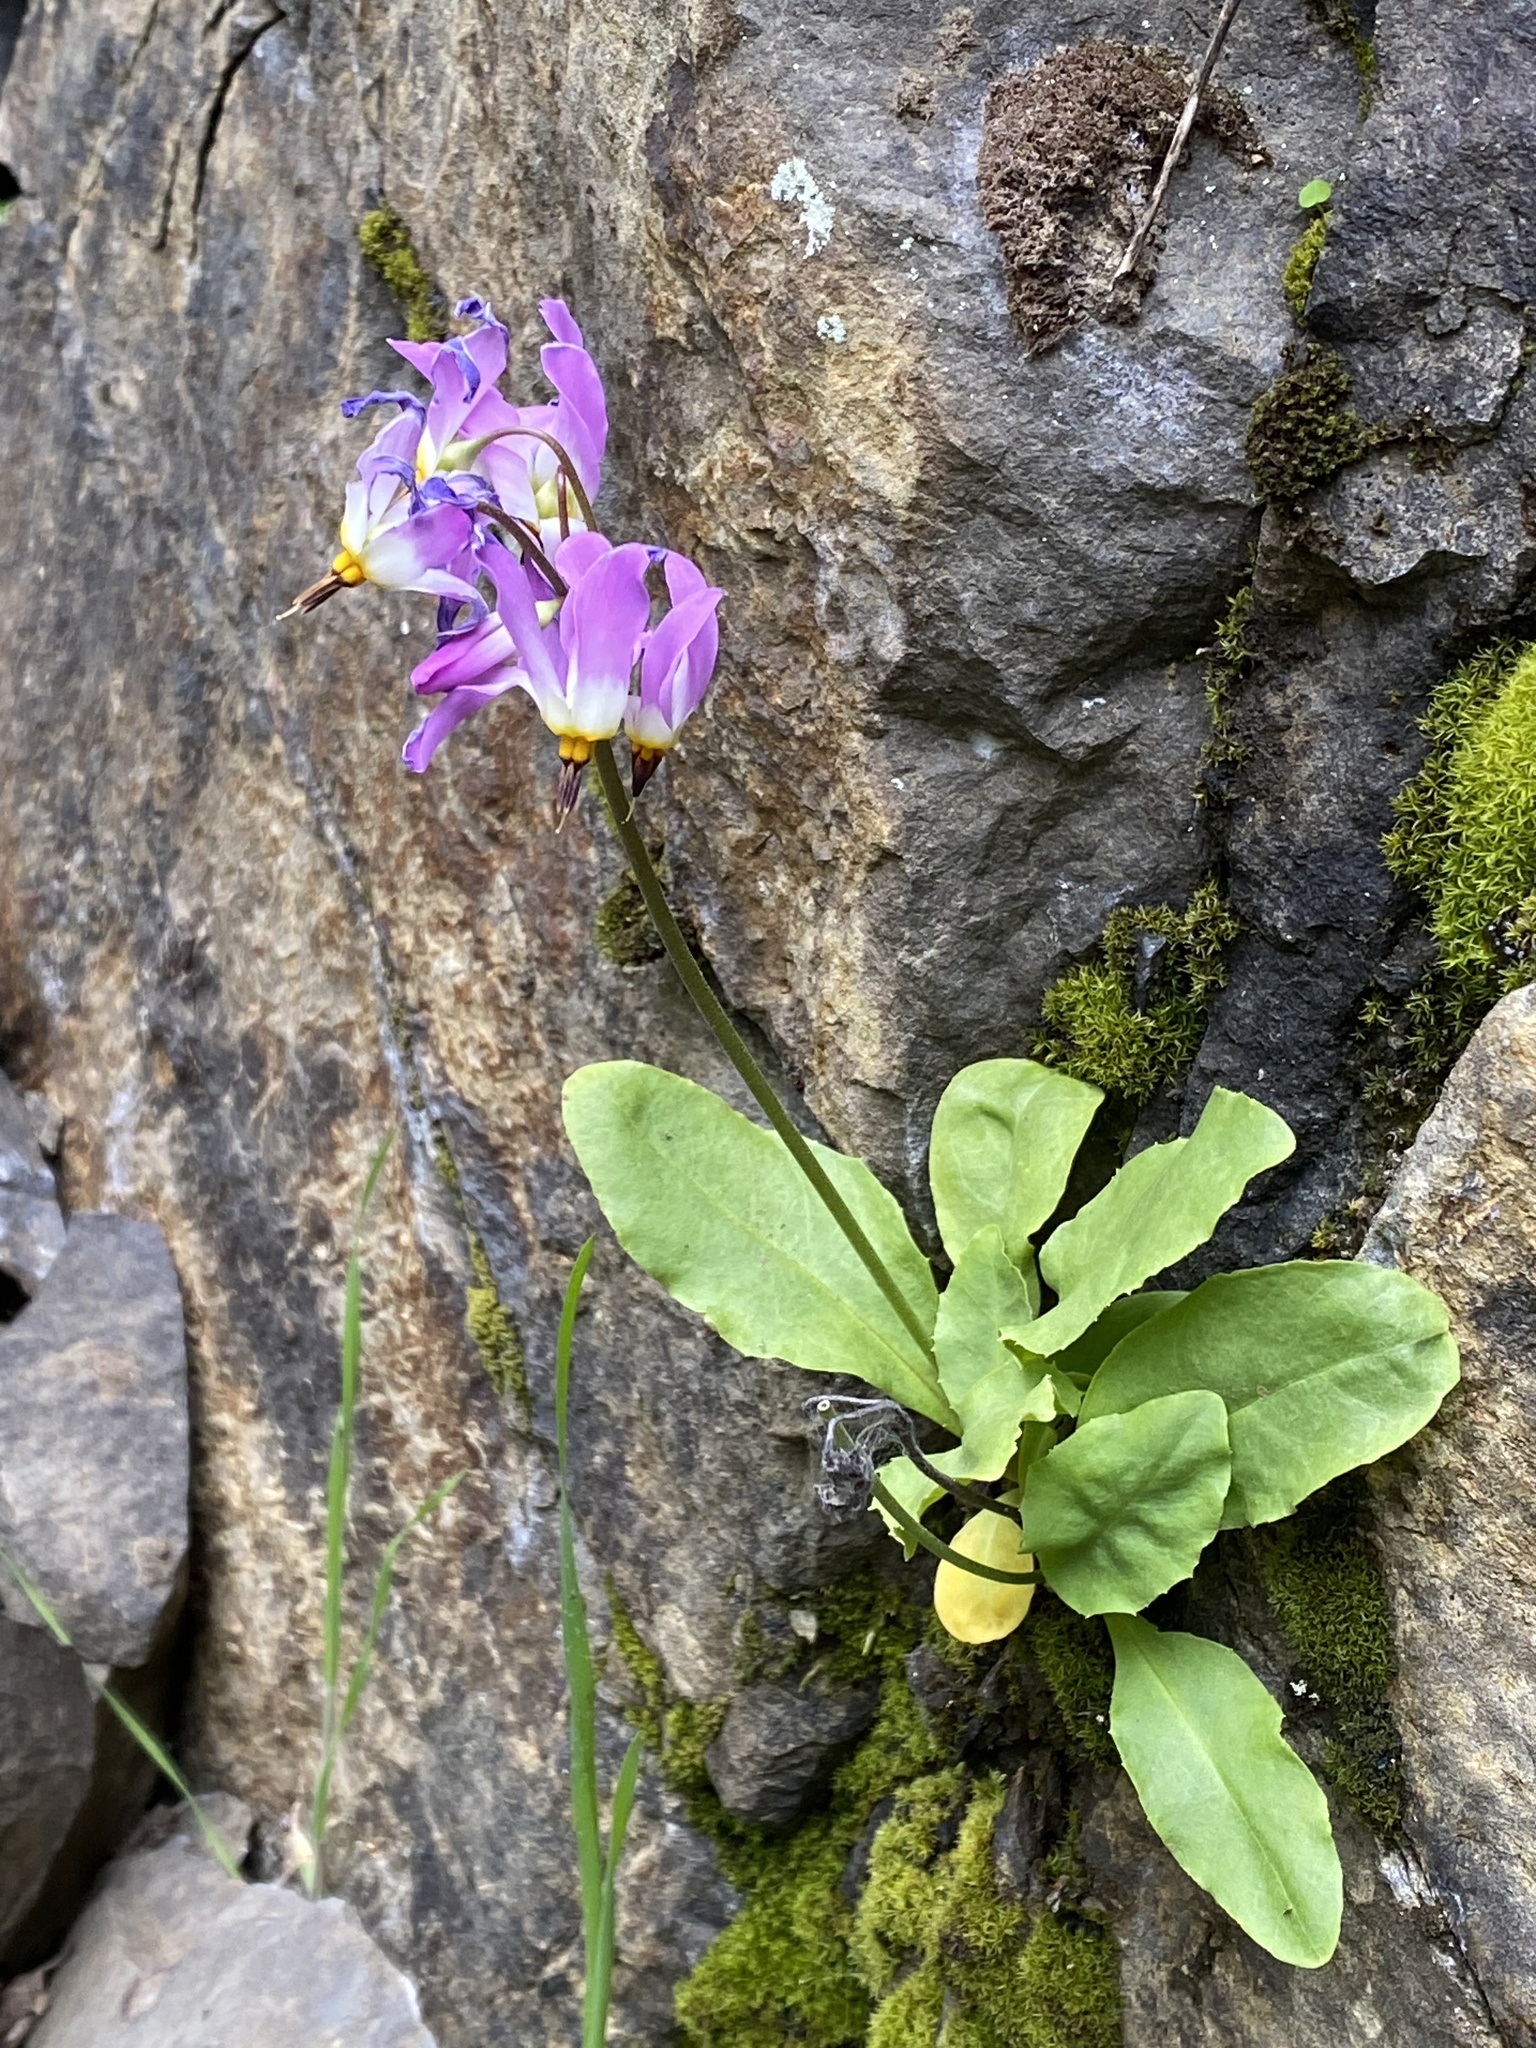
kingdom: Plantae
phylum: Tracheophyta
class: Magnoliopsida
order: Ericales
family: Primulaceae
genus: Dodecatheon
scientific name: Dodecatheon pulchellum
